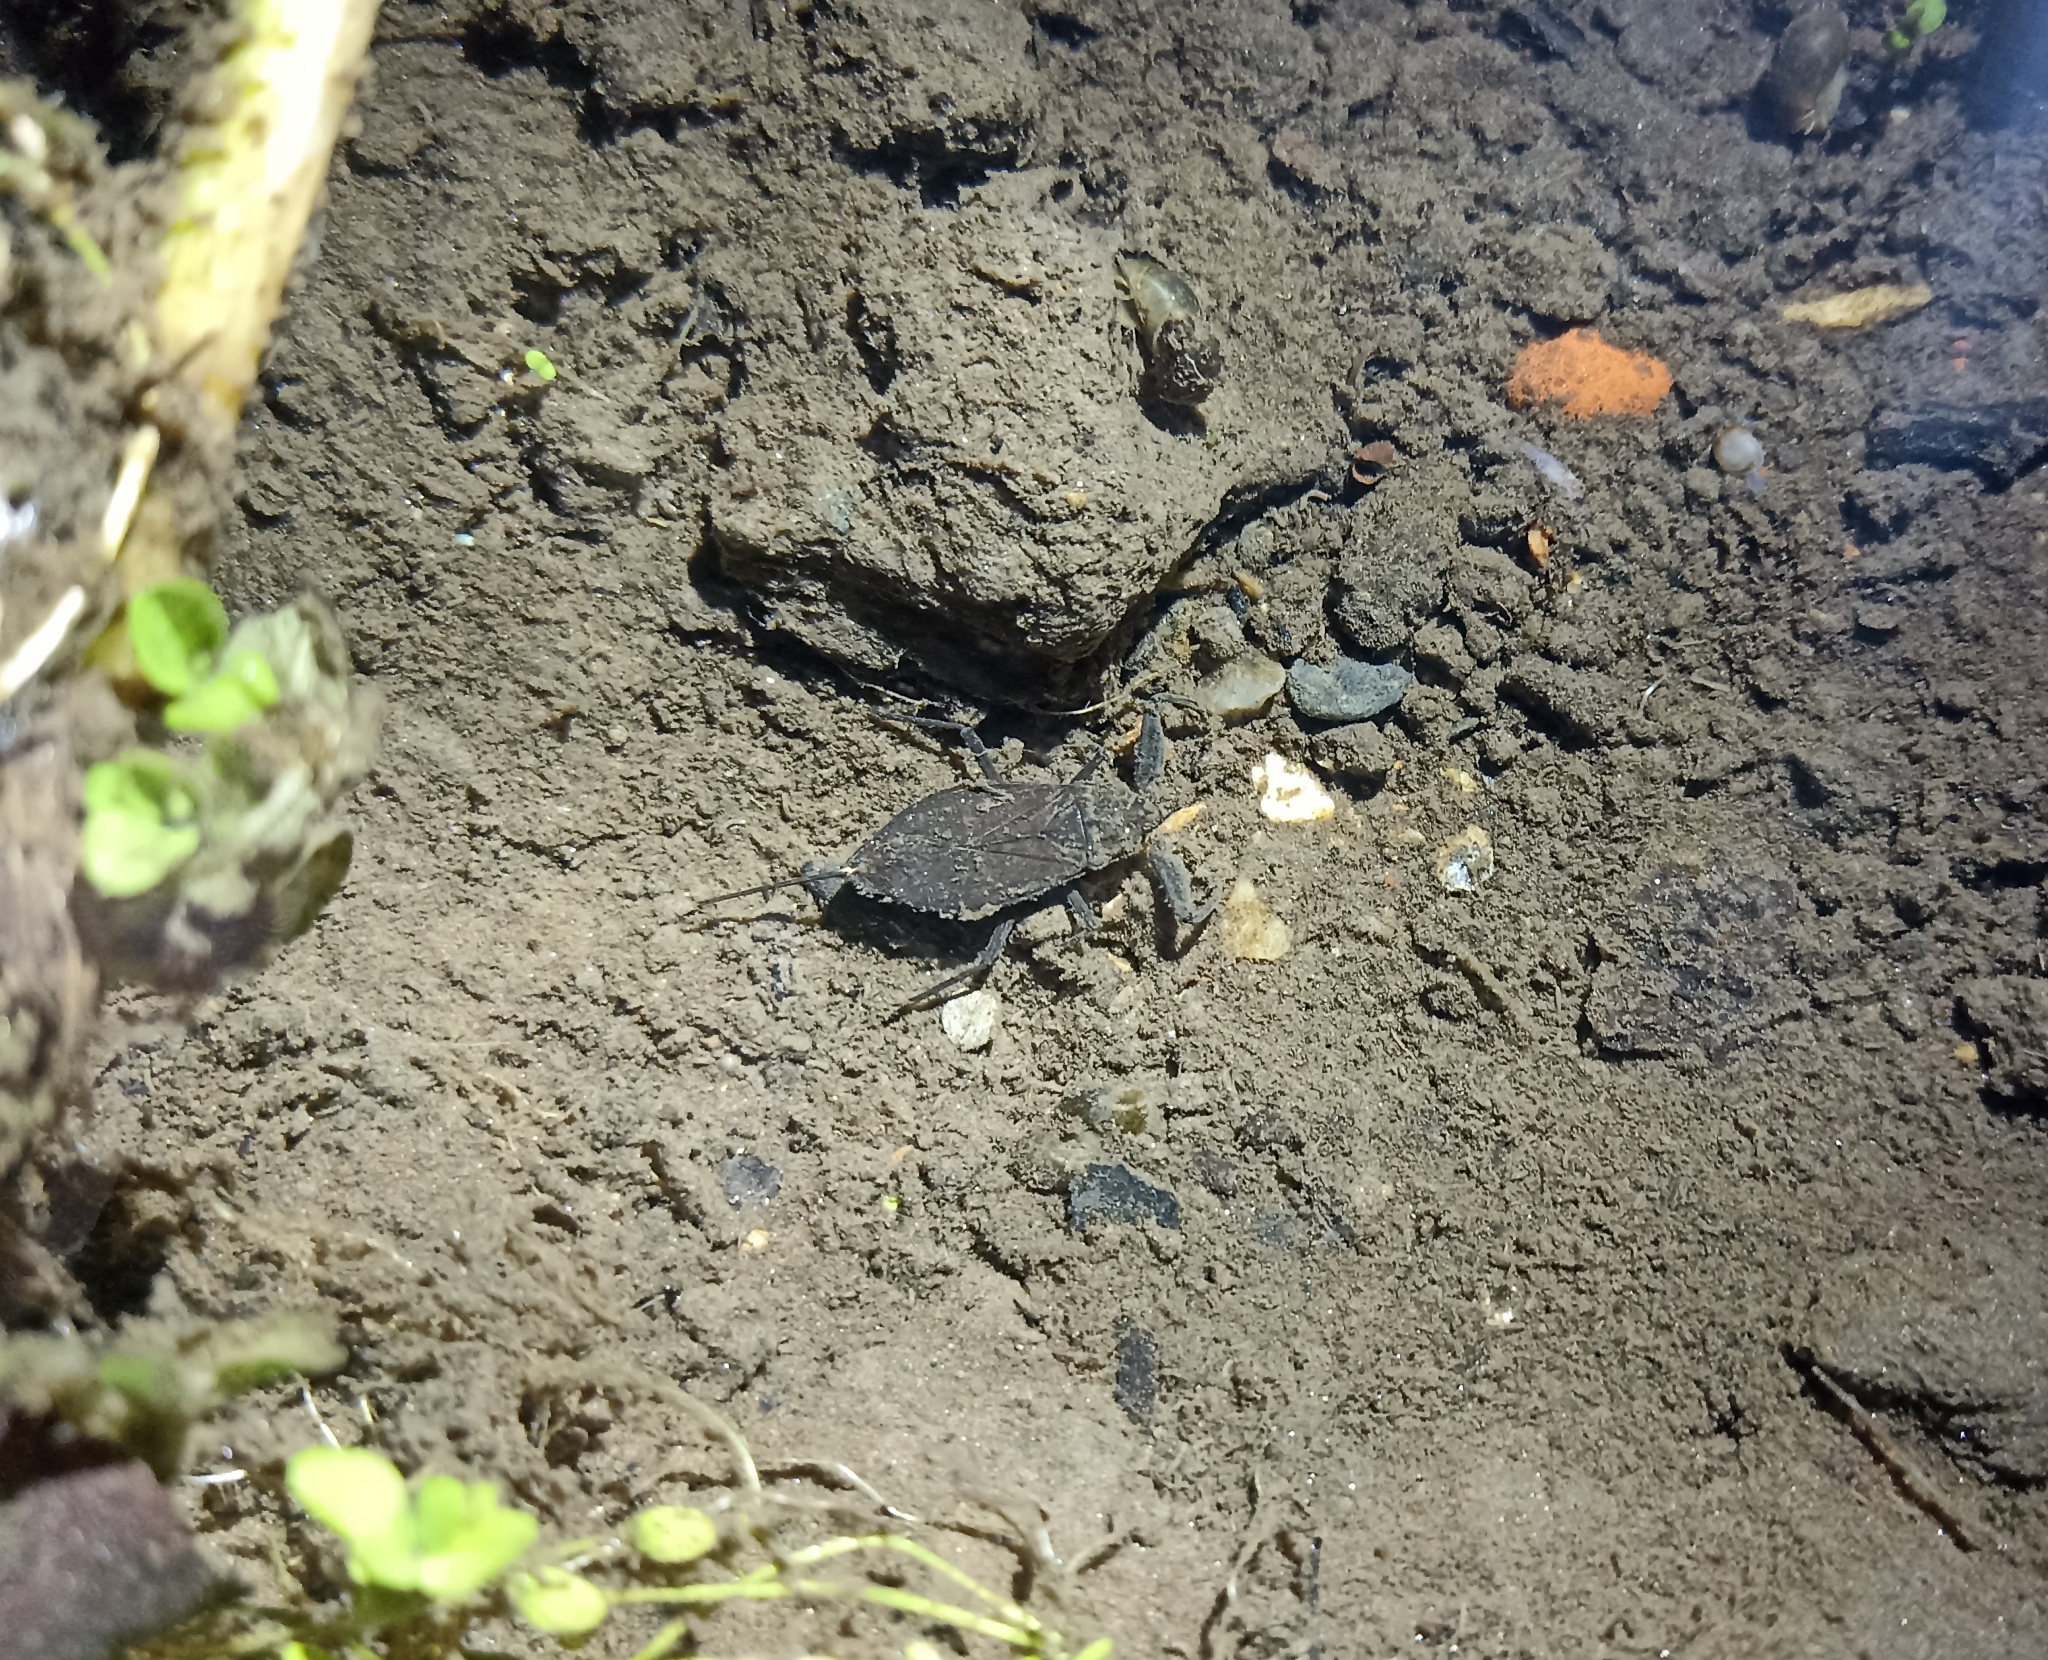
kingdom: Animalia
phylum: Arthropoda
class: Insecta
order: Hemiptera
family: Nepidae
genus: Nepa
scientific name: Nepa cinerea
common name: Water scorpion
